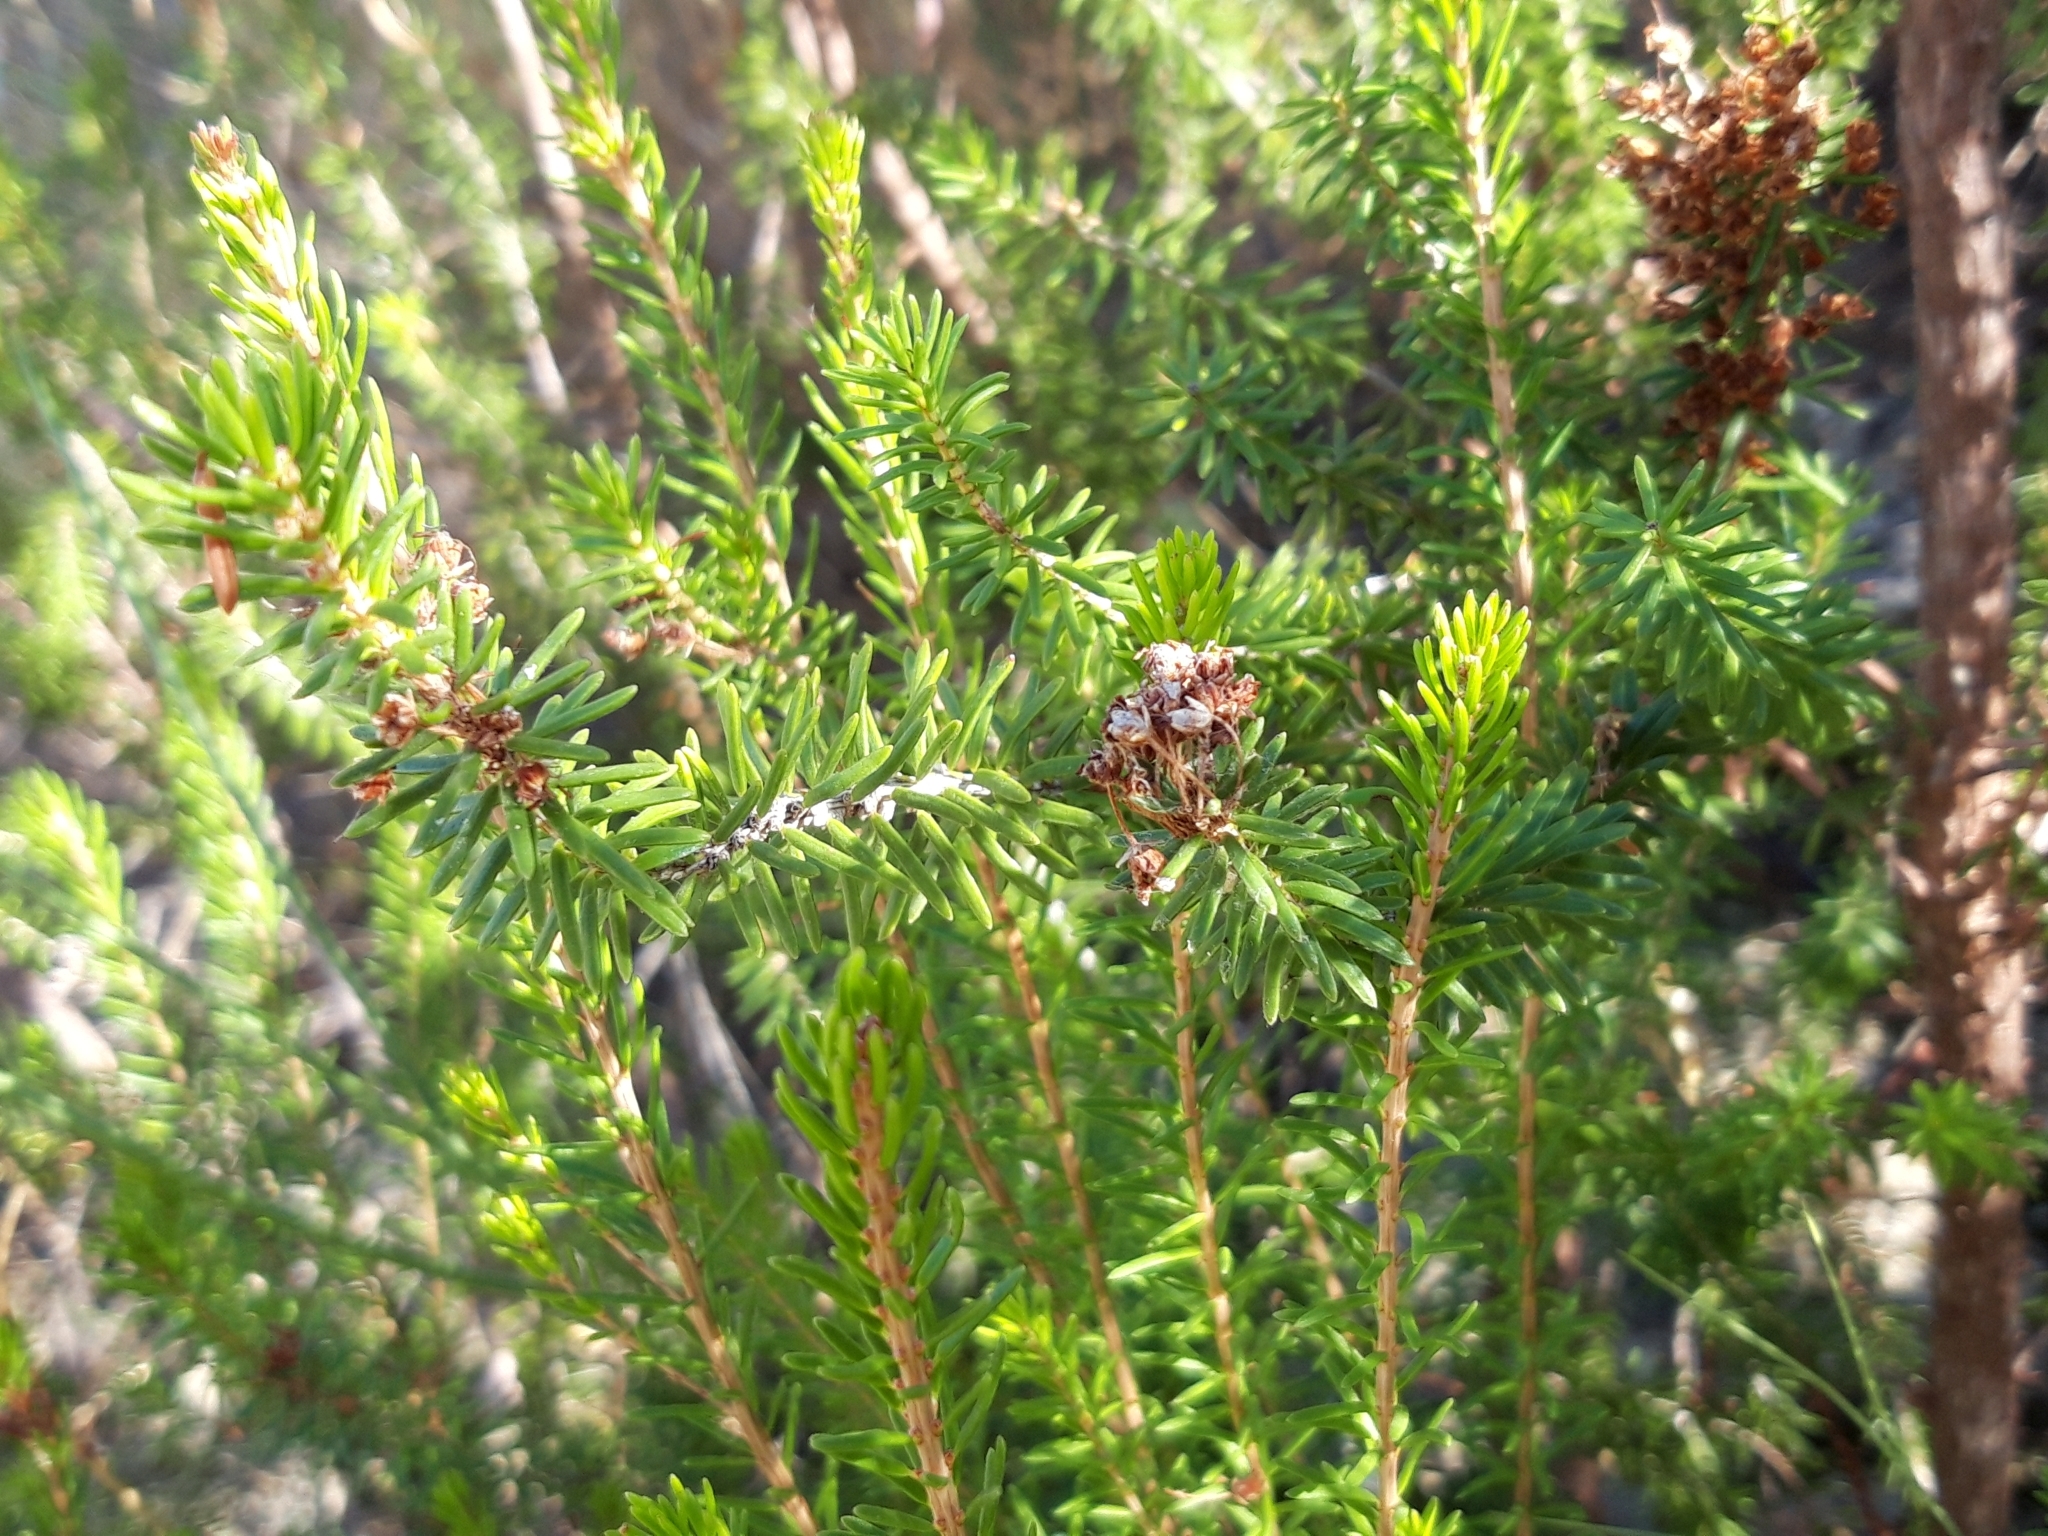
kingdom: Plantae
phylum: Tracheophyta
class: Magnoliopsida
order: Ericales
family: Ericaceae
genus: Erica
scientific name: Erica multiflora
